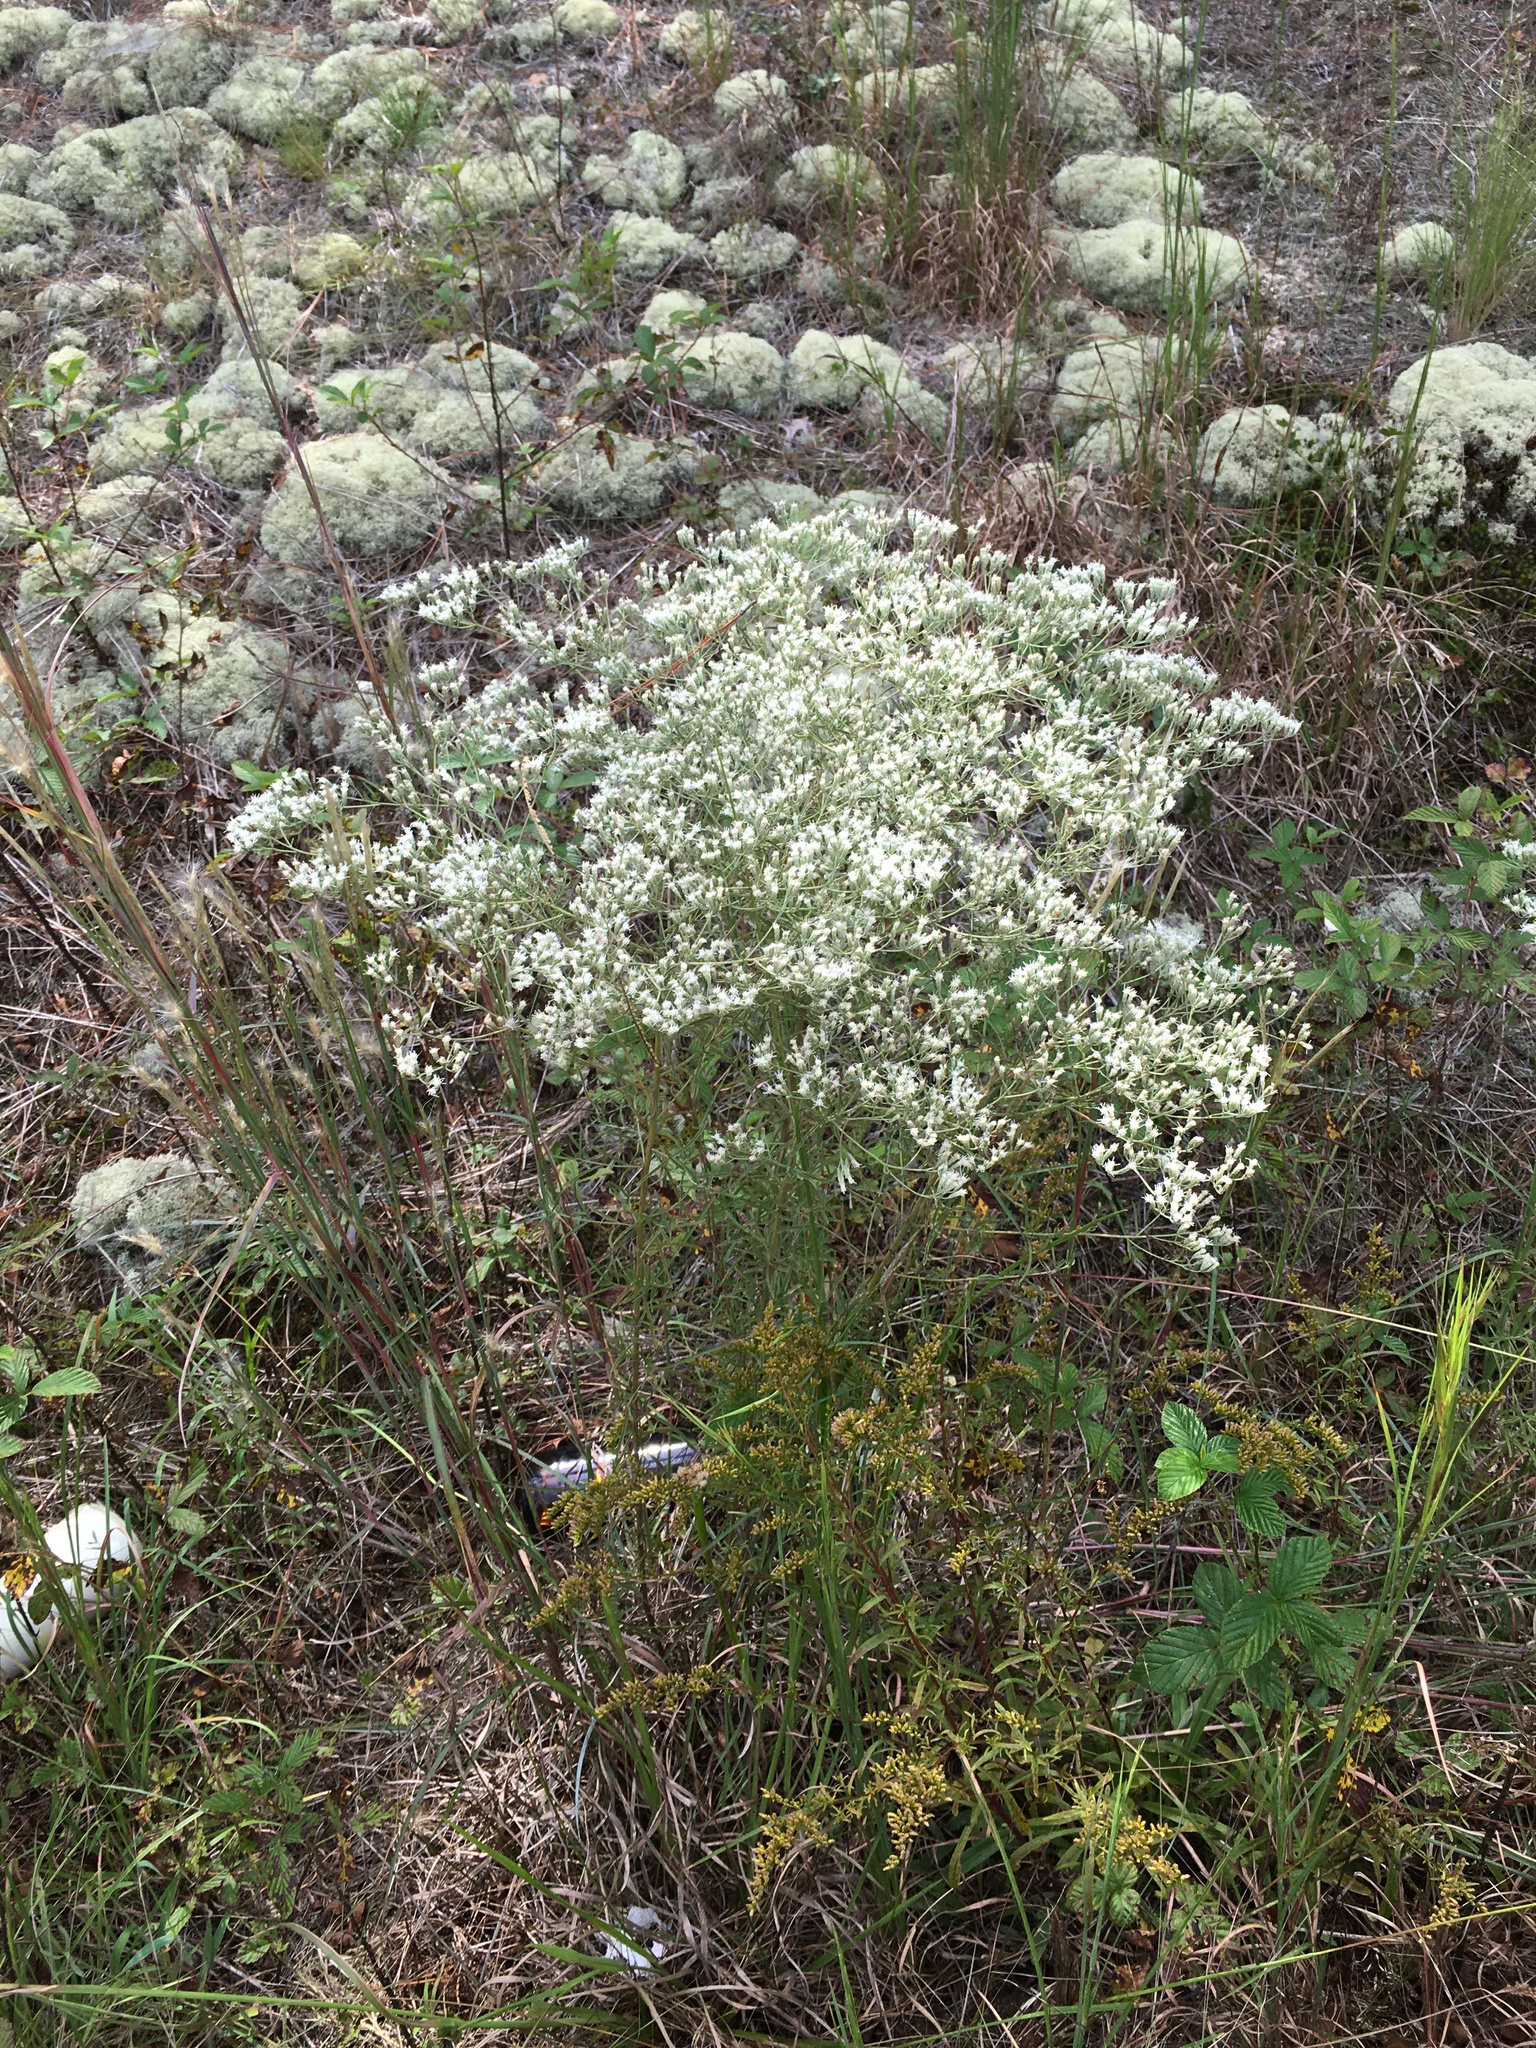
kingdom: Plantae
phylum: Tracheophyta
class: Magnoliopsida
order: Asterales
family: Asteraceae
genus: Eupatorium
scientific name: Eupatorium hyssopifolium
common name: Hyssop-leaf thoroughwort
